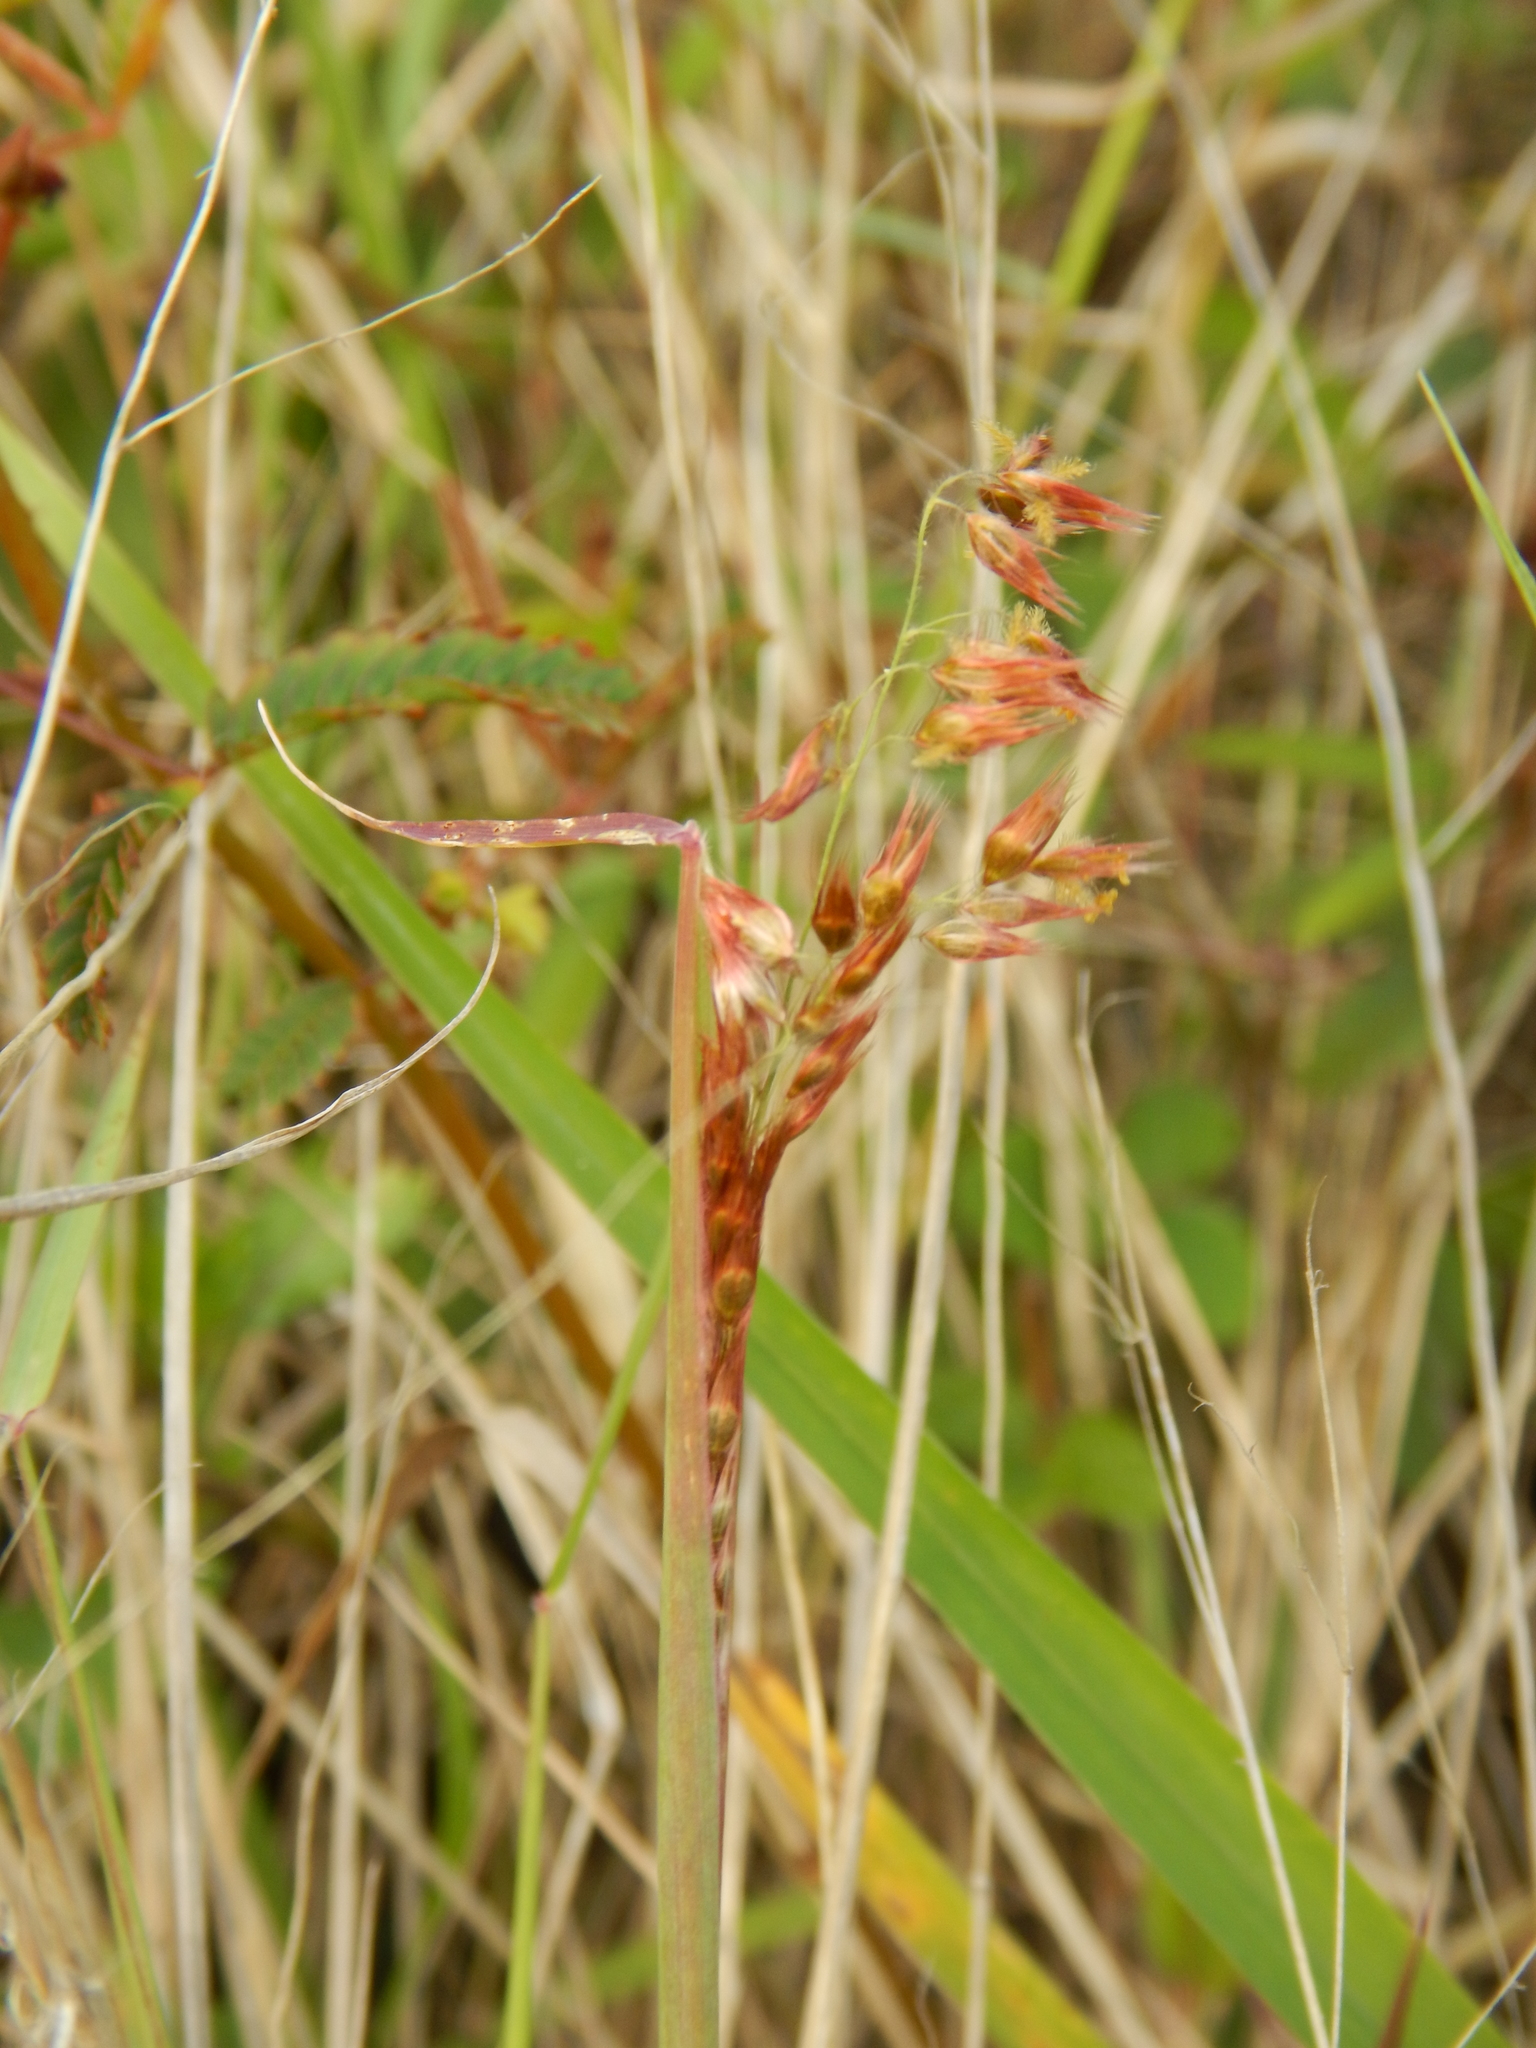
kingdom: Plantae
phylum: Tracheophyta
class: Liliopsida
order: Poales
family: Poaceae
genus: Melinis
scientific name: Melinis repens
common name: Rose natal grass
